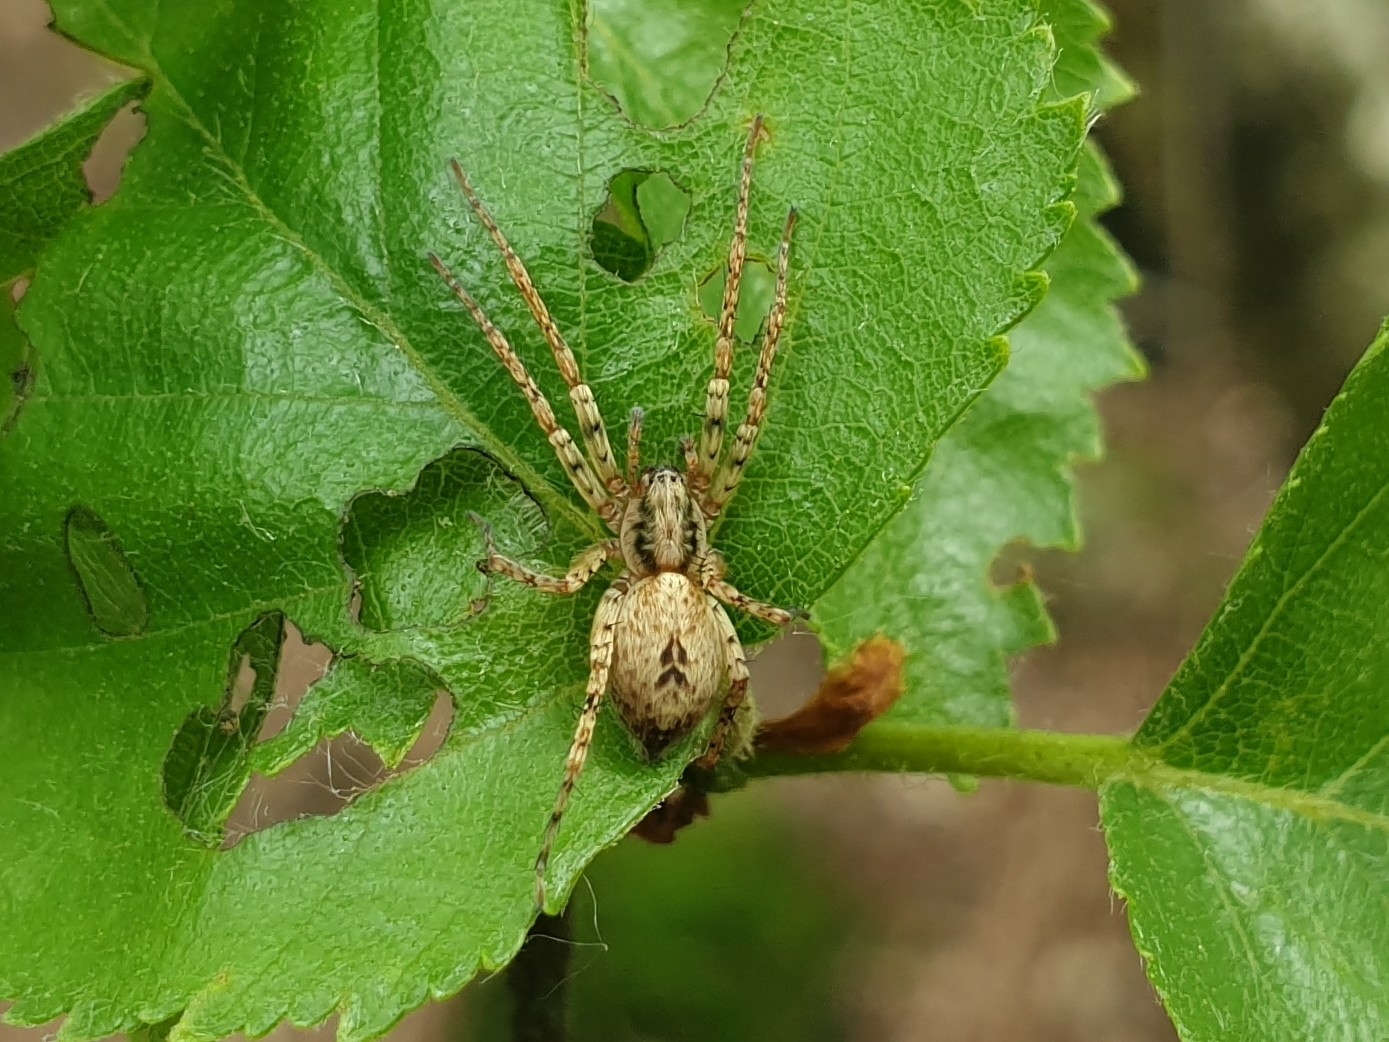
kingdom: Animalia
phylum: Arthropoda
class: Arachnida
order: Araneae
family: Anyphaenidae
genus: Anyphaena
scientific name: Anyphaena accentuata
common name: Buzzing spider
